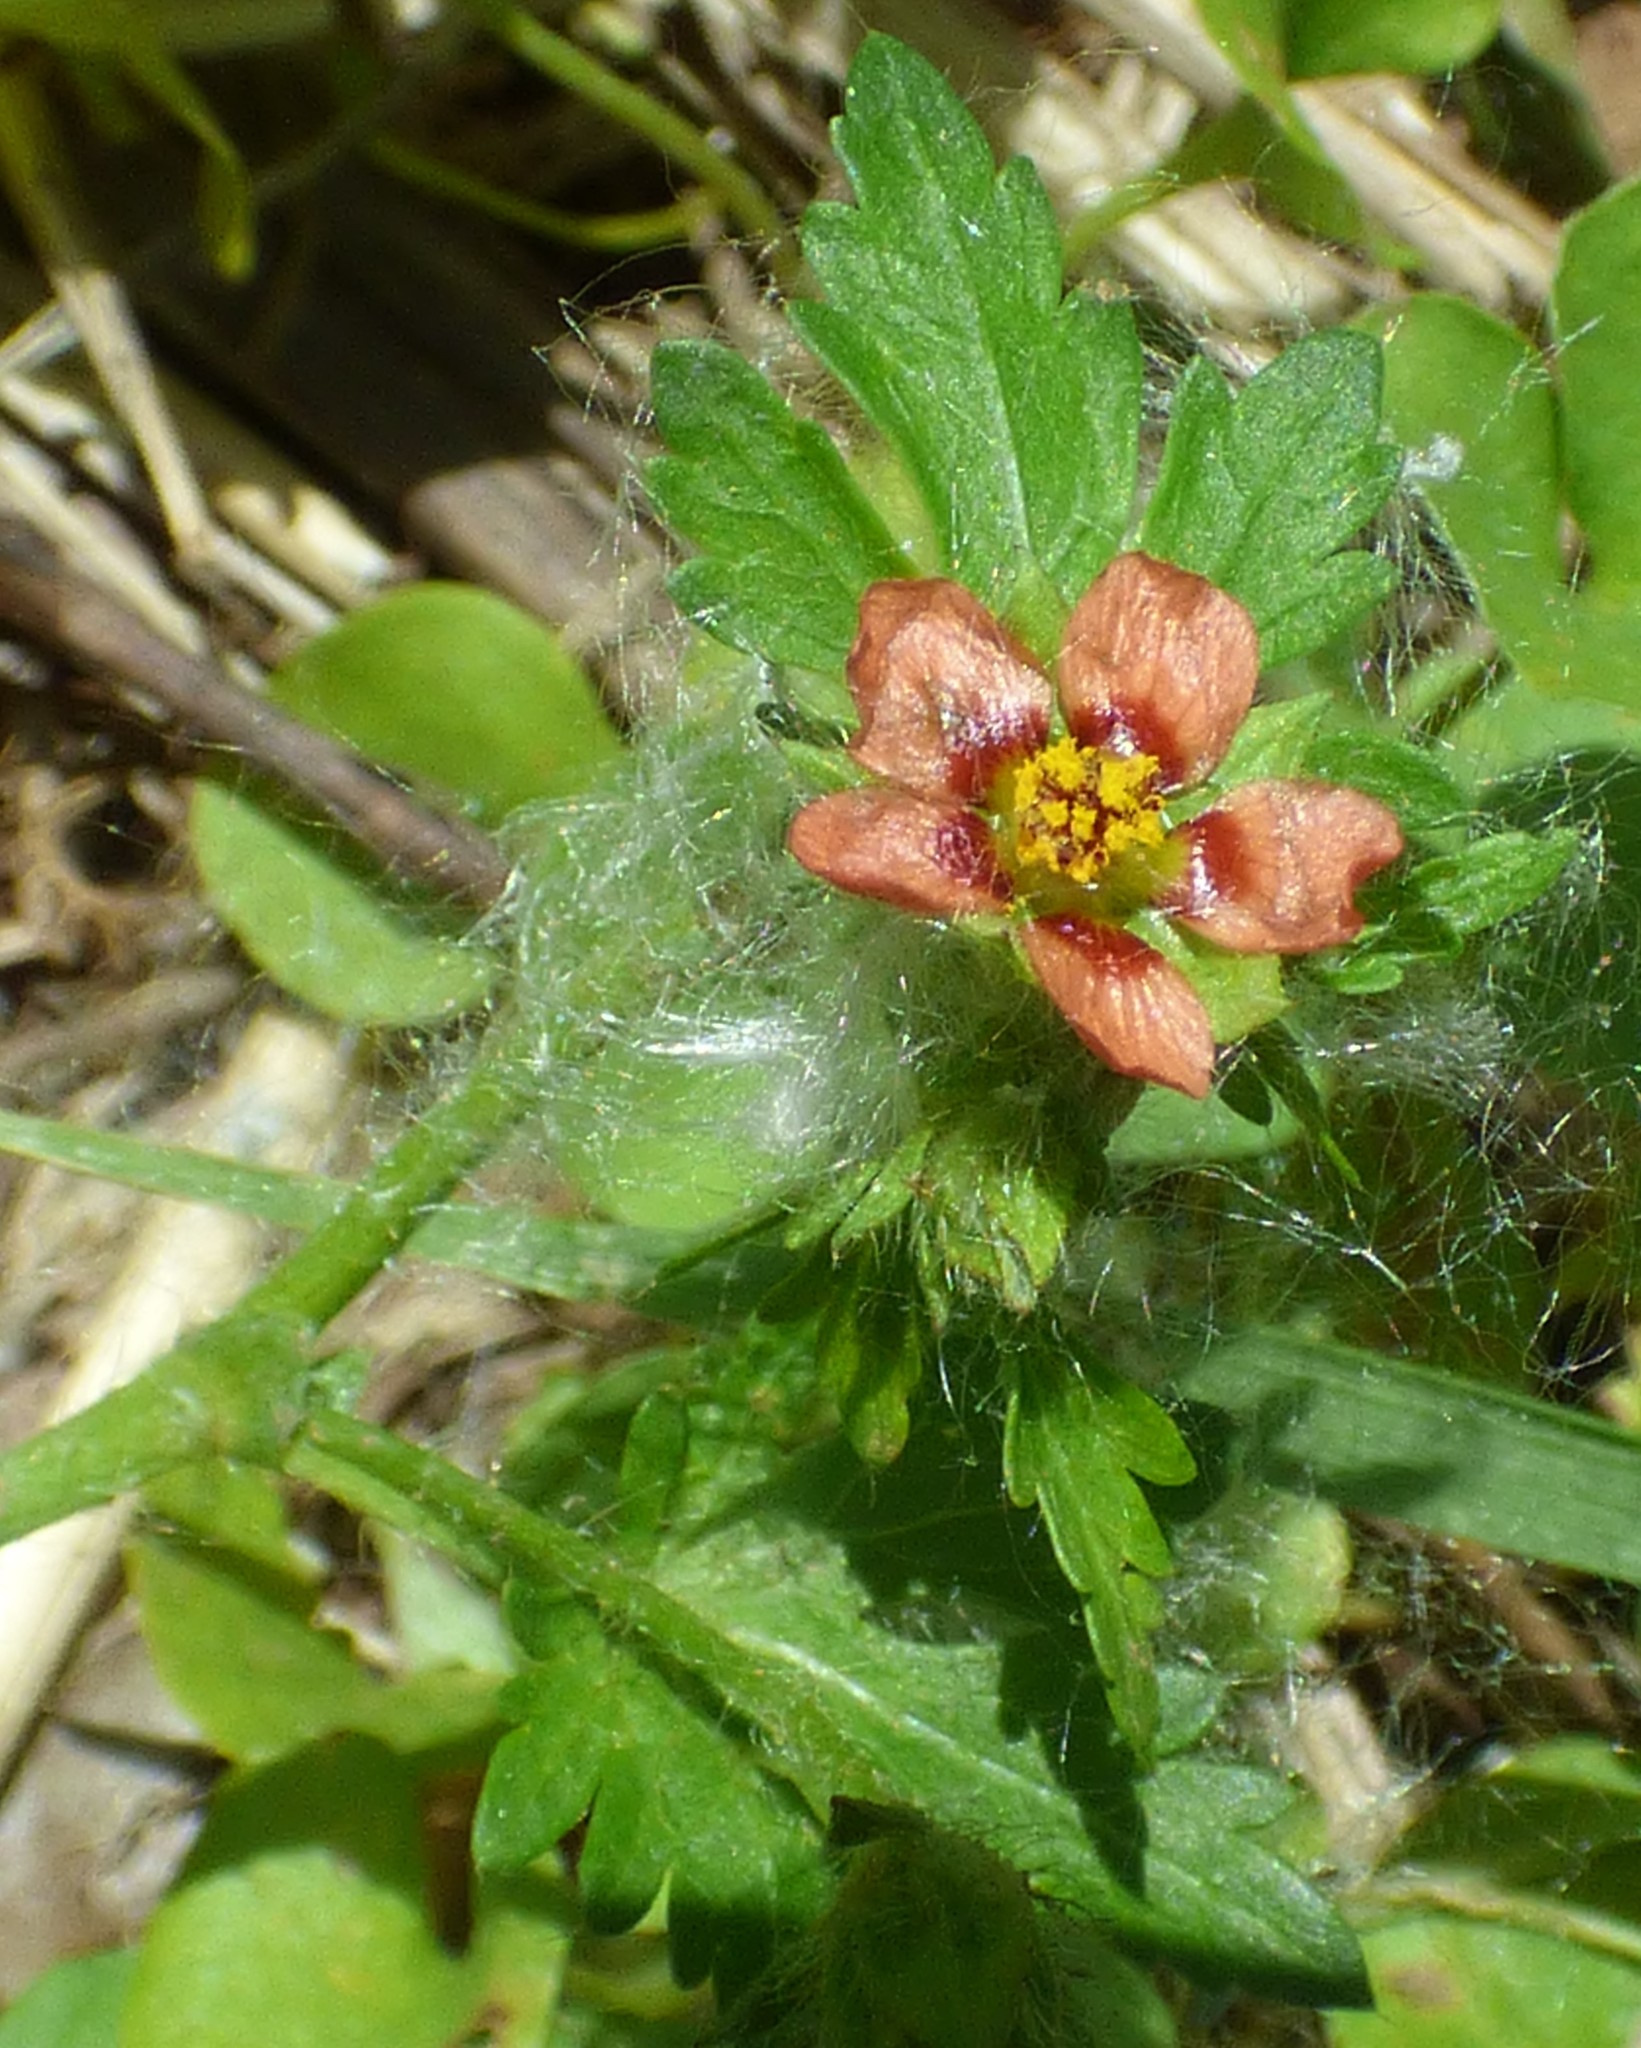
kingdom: Plantae
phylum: Tracheophyta
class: Magnoliopsida
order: Malvales
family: Malvaceae
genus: Modiola
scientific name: Modiola caroliniana
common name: Carolina bristlemallow
